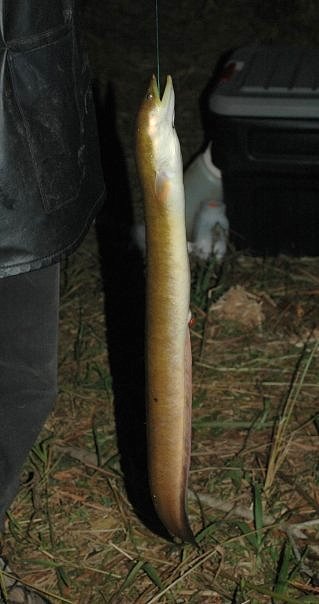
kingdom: Animalia
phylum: Chordata
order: Anguilliformes
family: Anguillidae
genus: Anguilla
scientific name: Anguilla mossambica
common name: African longfin eel
